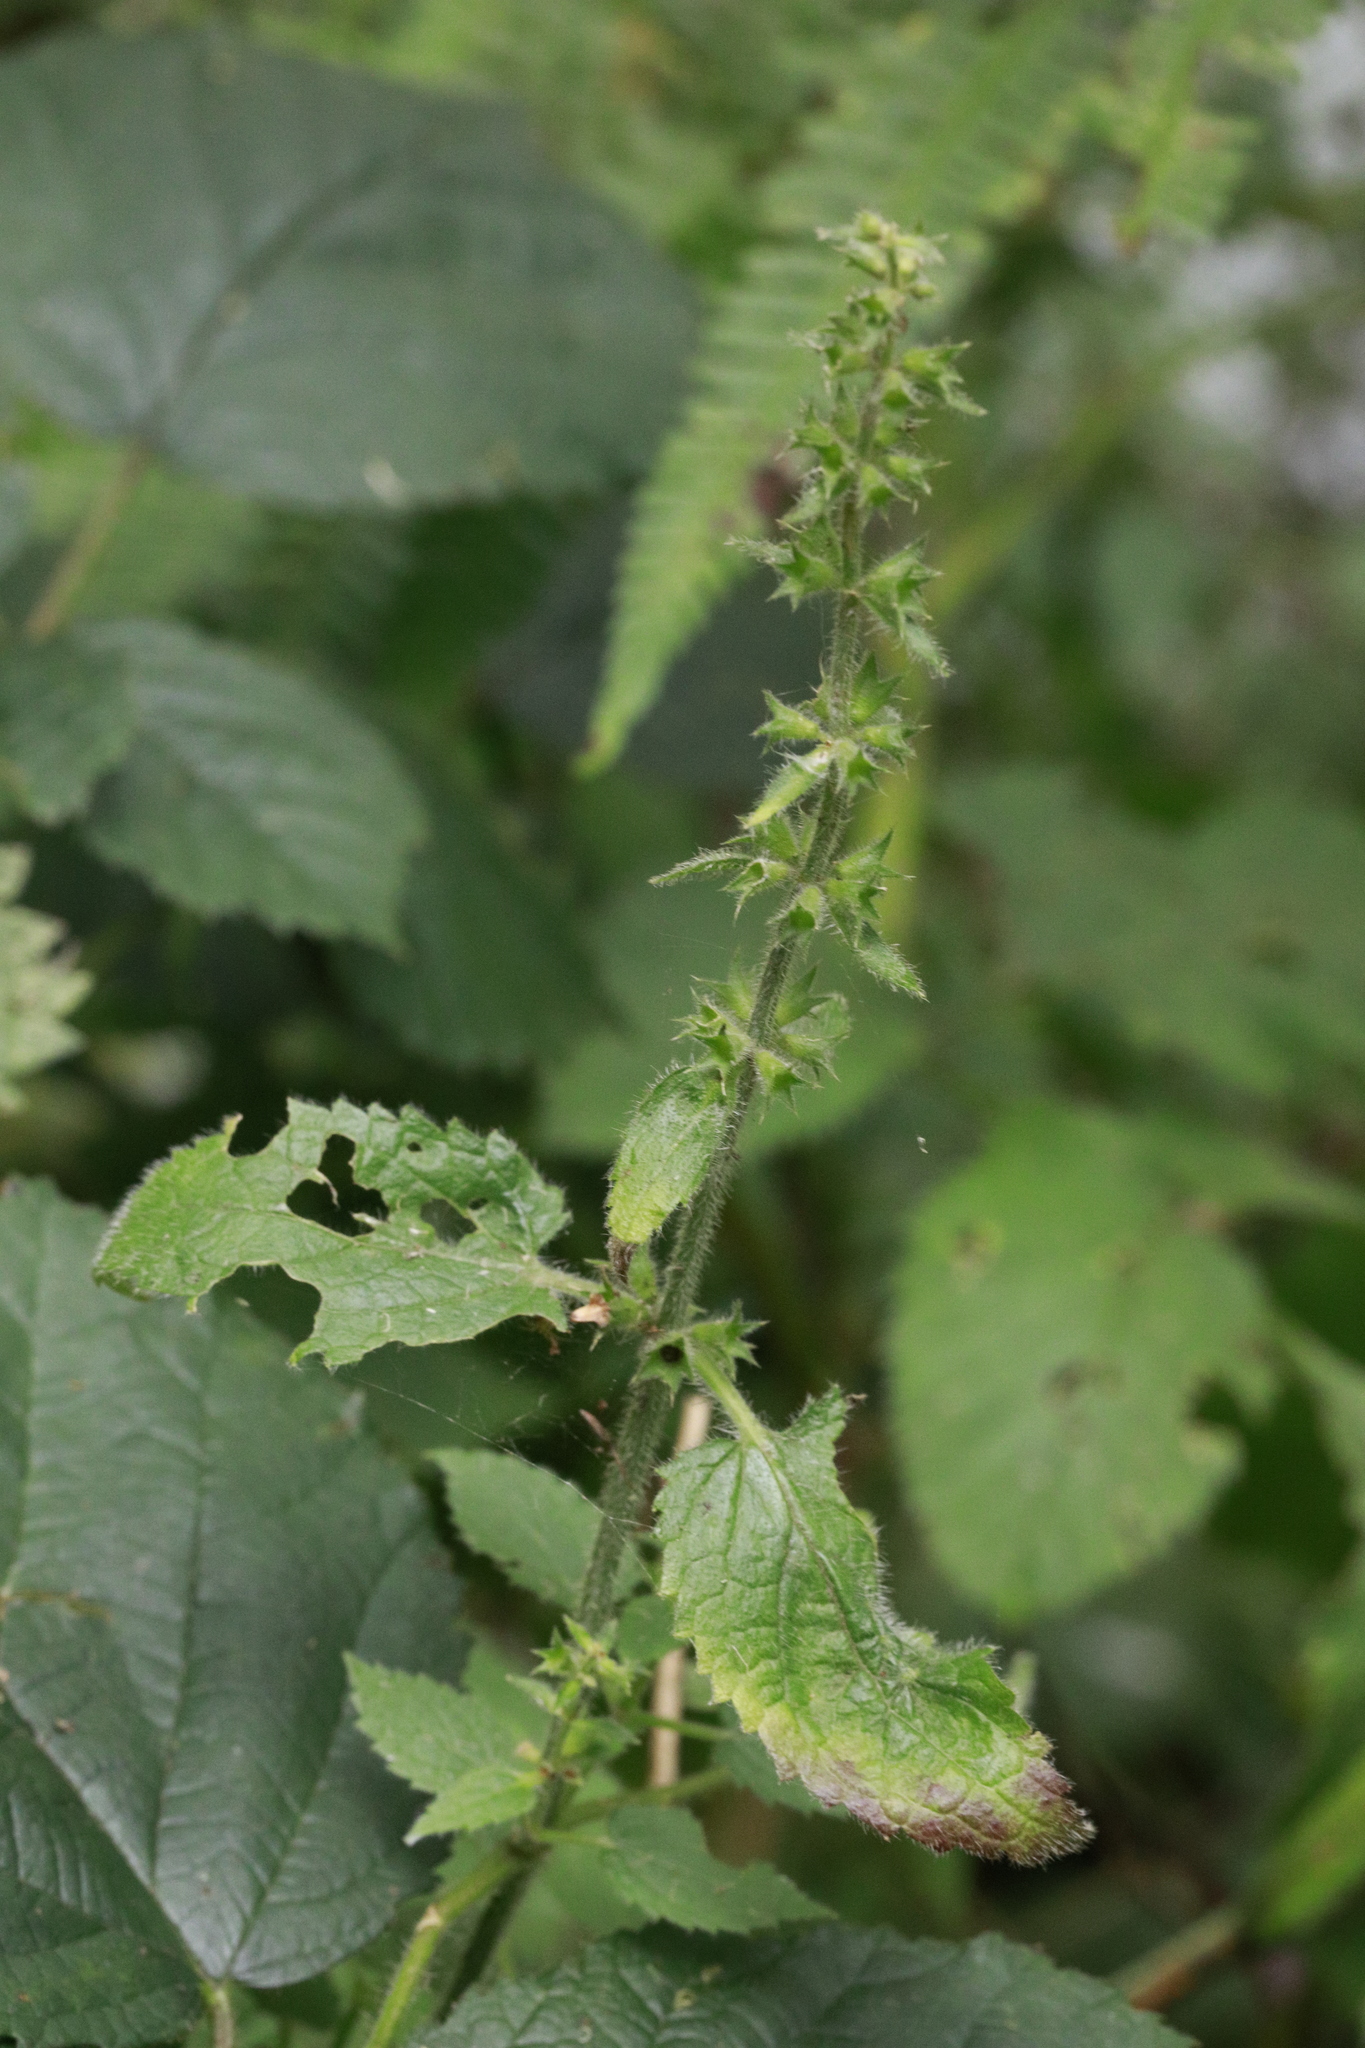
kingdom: Plantae
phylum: Tracheophyta
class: Magnoliopsida
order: Lamiales
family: Lamiaceae
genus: Stachys
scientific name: Stachys sylvatica
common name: Hedge woundwort
